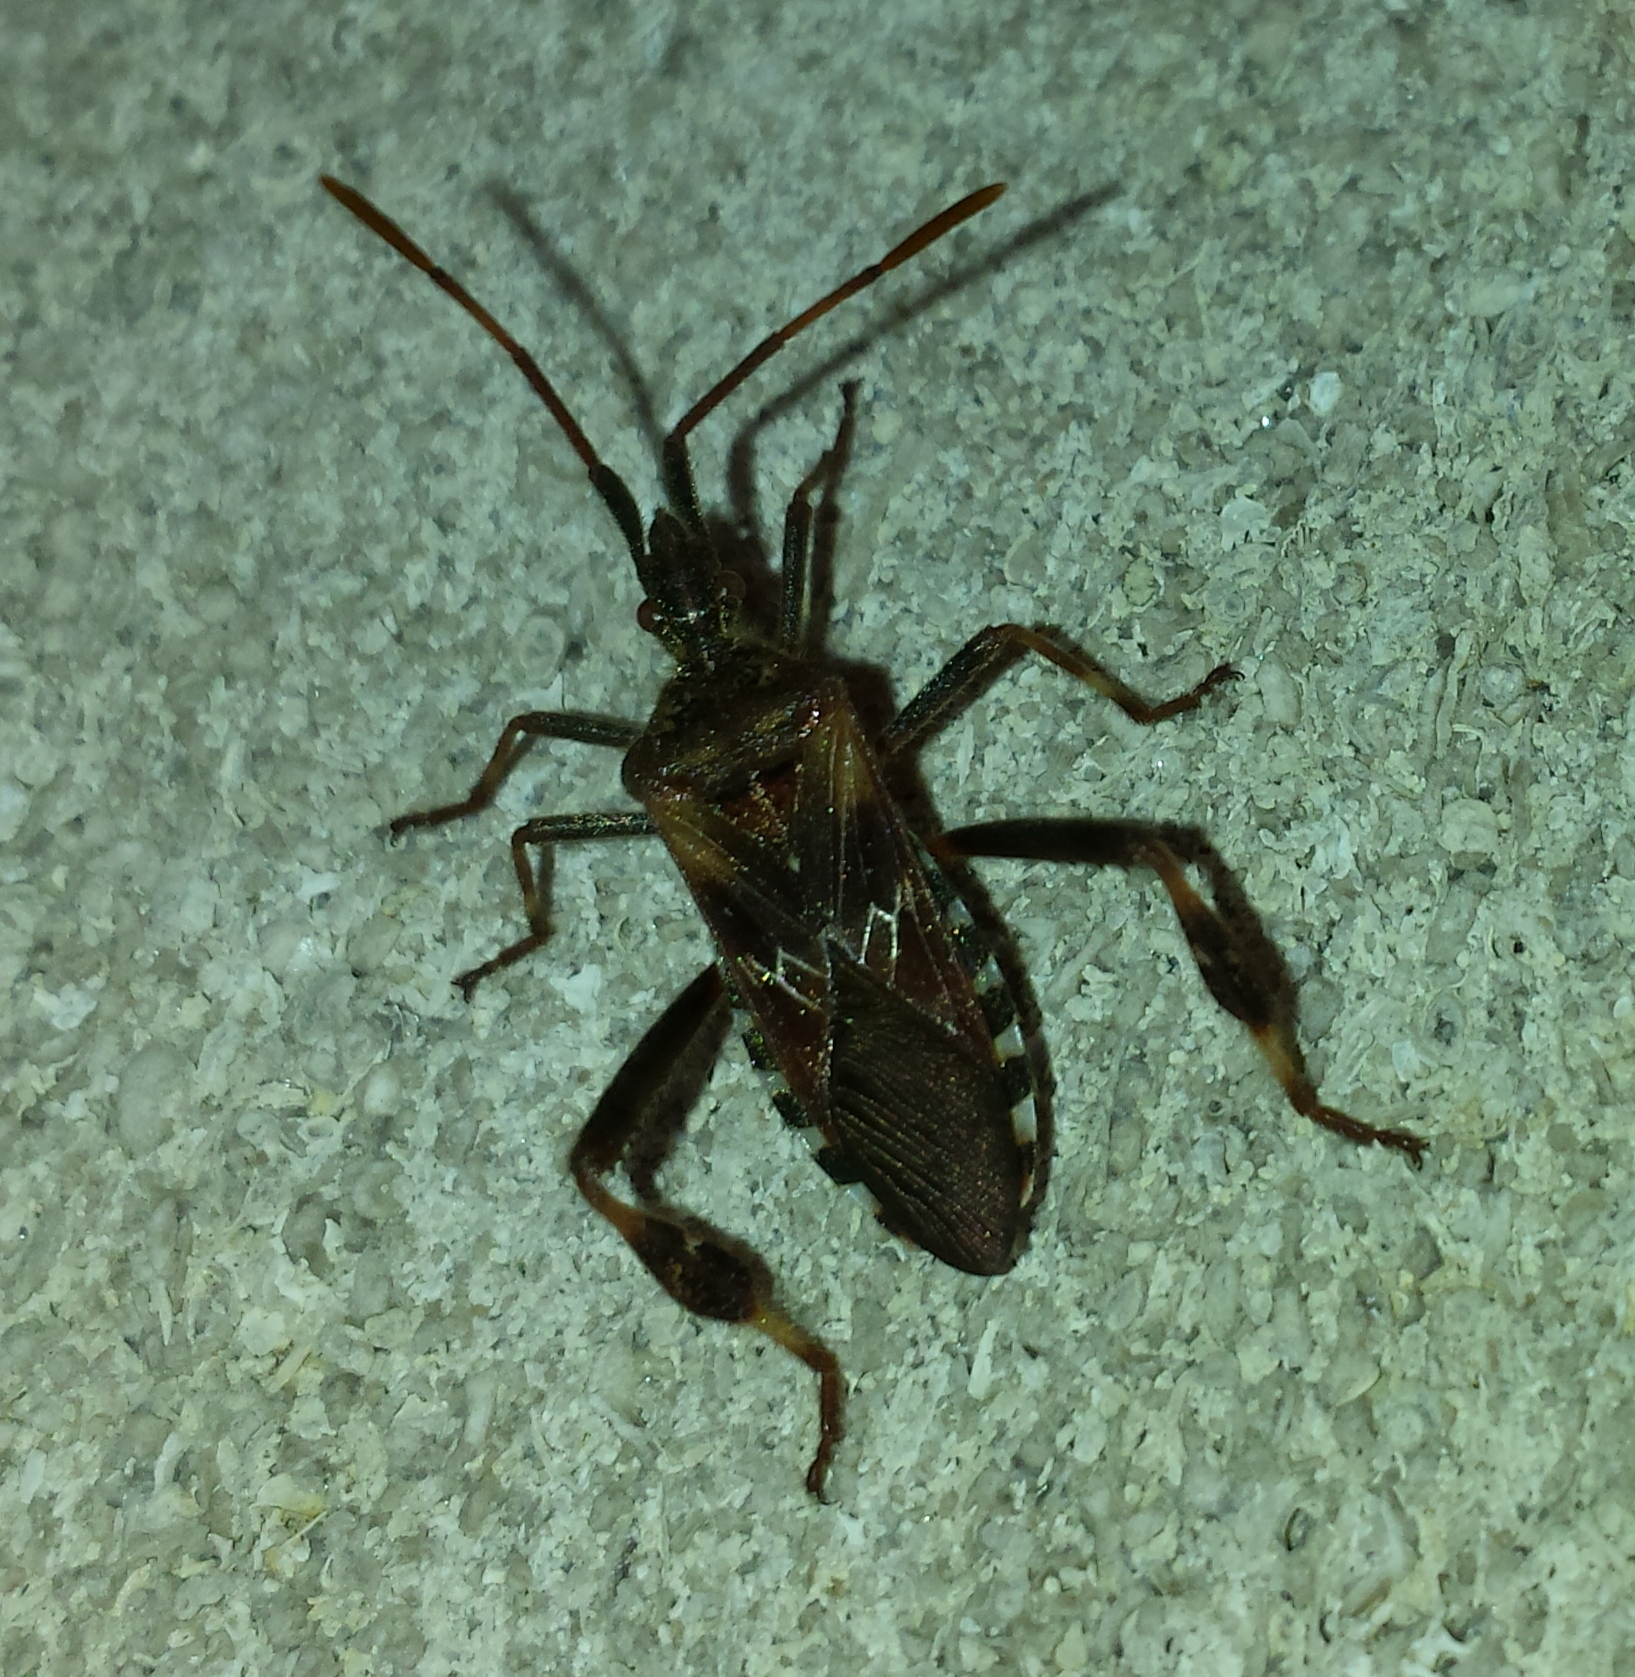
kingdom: Animalia
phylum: Arthropoda
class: Insecta
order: Hemiptera
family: Coreidae
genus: Leptoglossus
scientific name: Leptoglossus occidentalis
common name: Western conifer-seed bug
